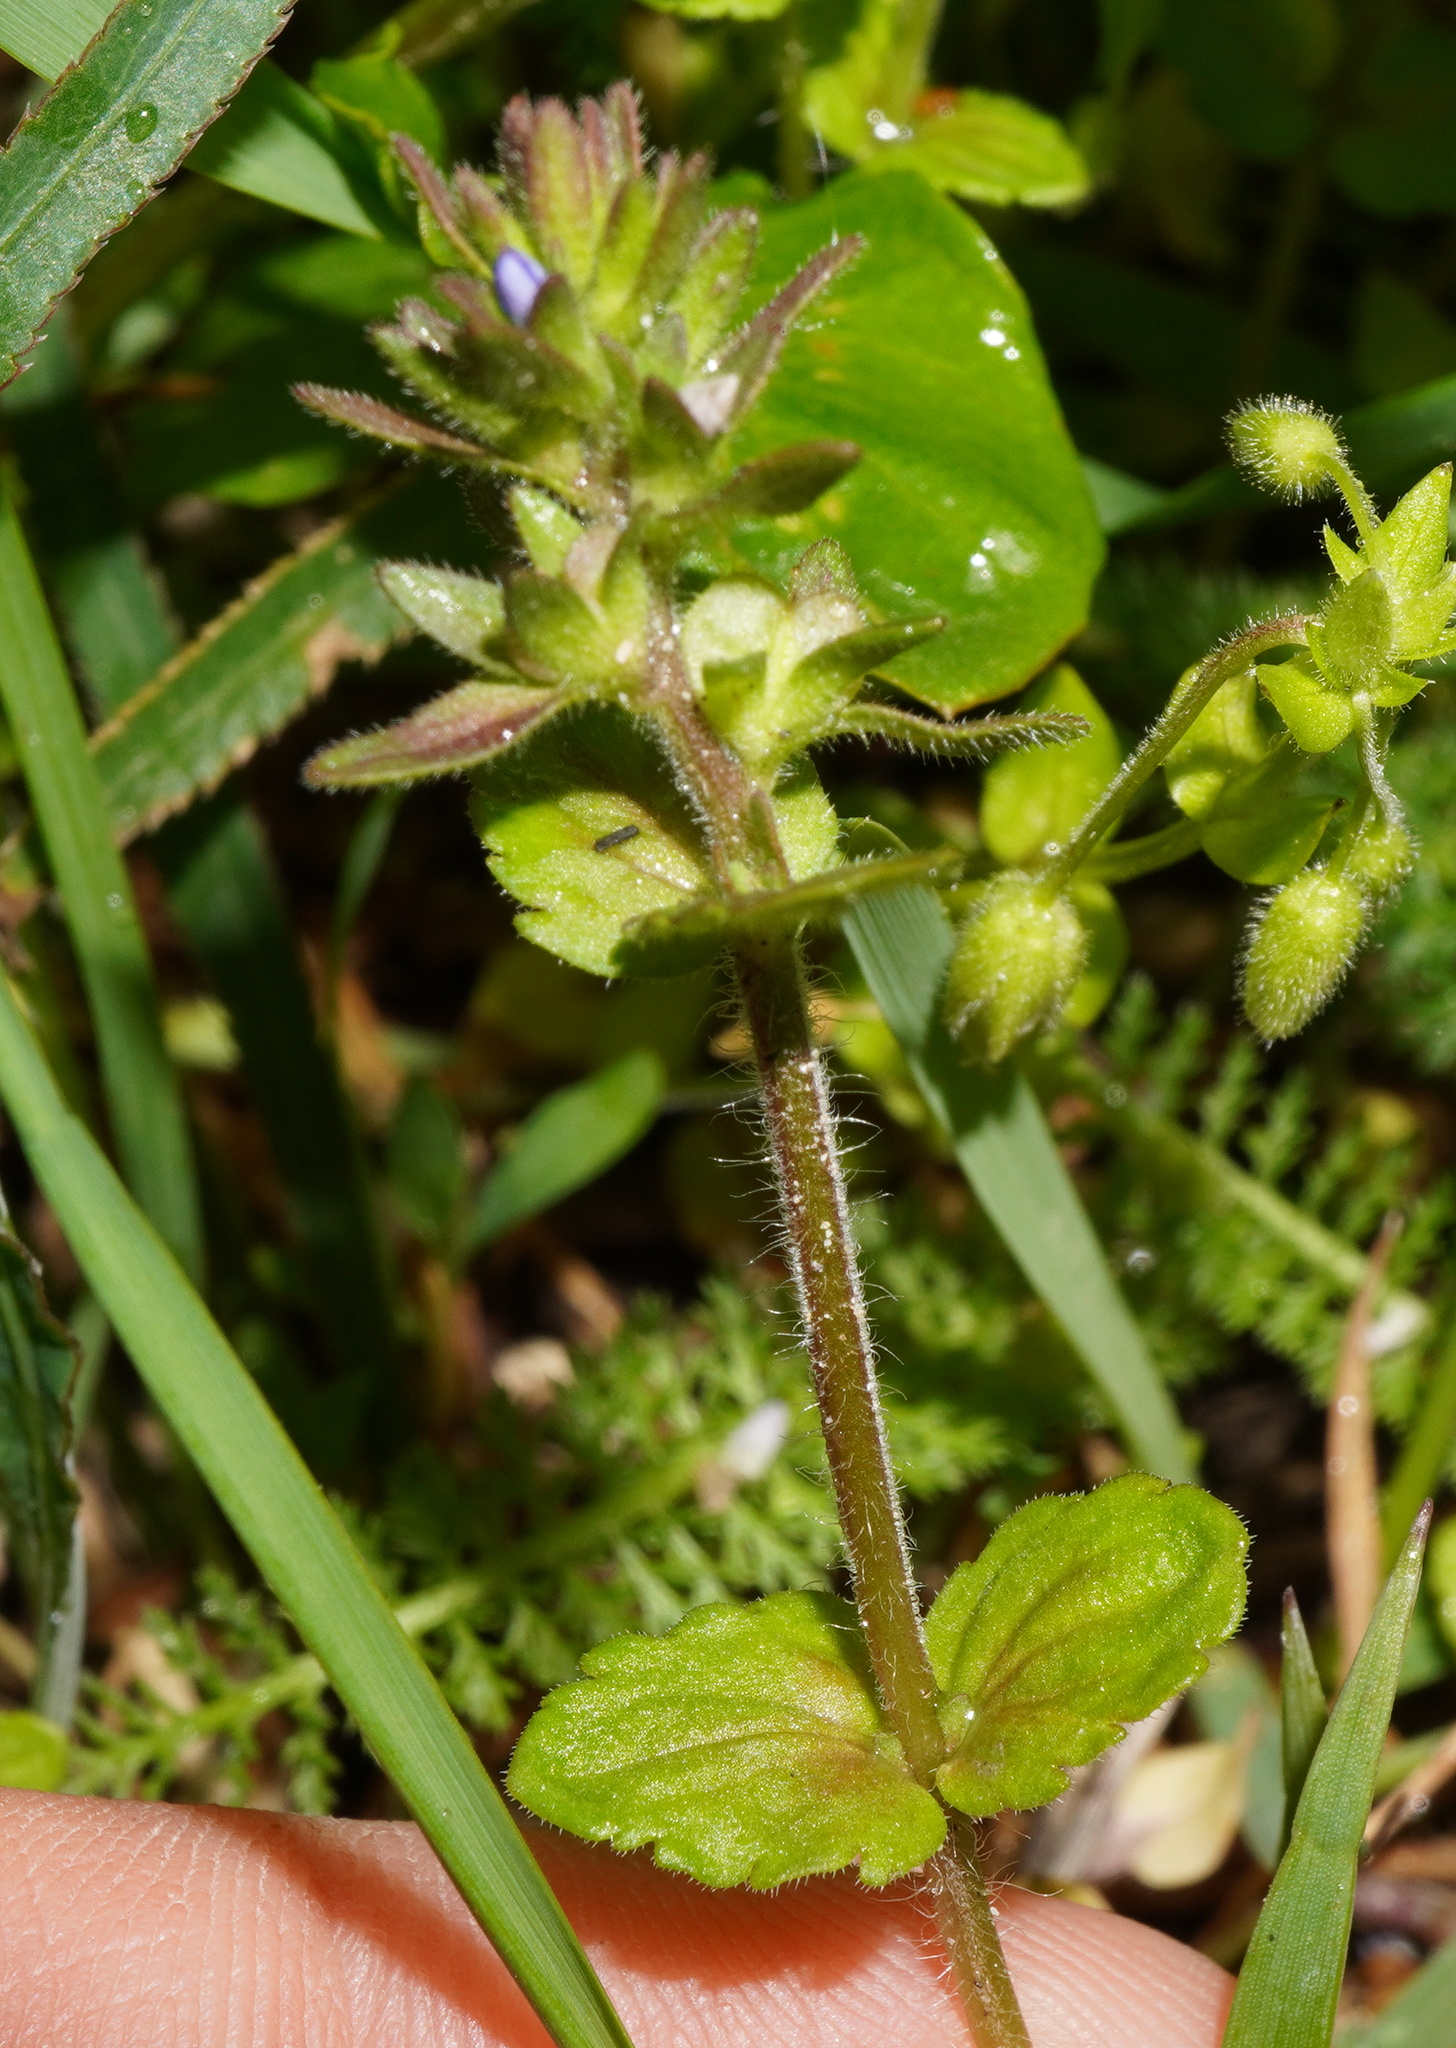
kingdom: Plantae
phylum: Tracheophyta
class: Magnoliopsida
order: Lamiales
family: Plantaginaceae
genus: Veronica
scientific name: Veronica arvensis
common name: Corn speedwell
